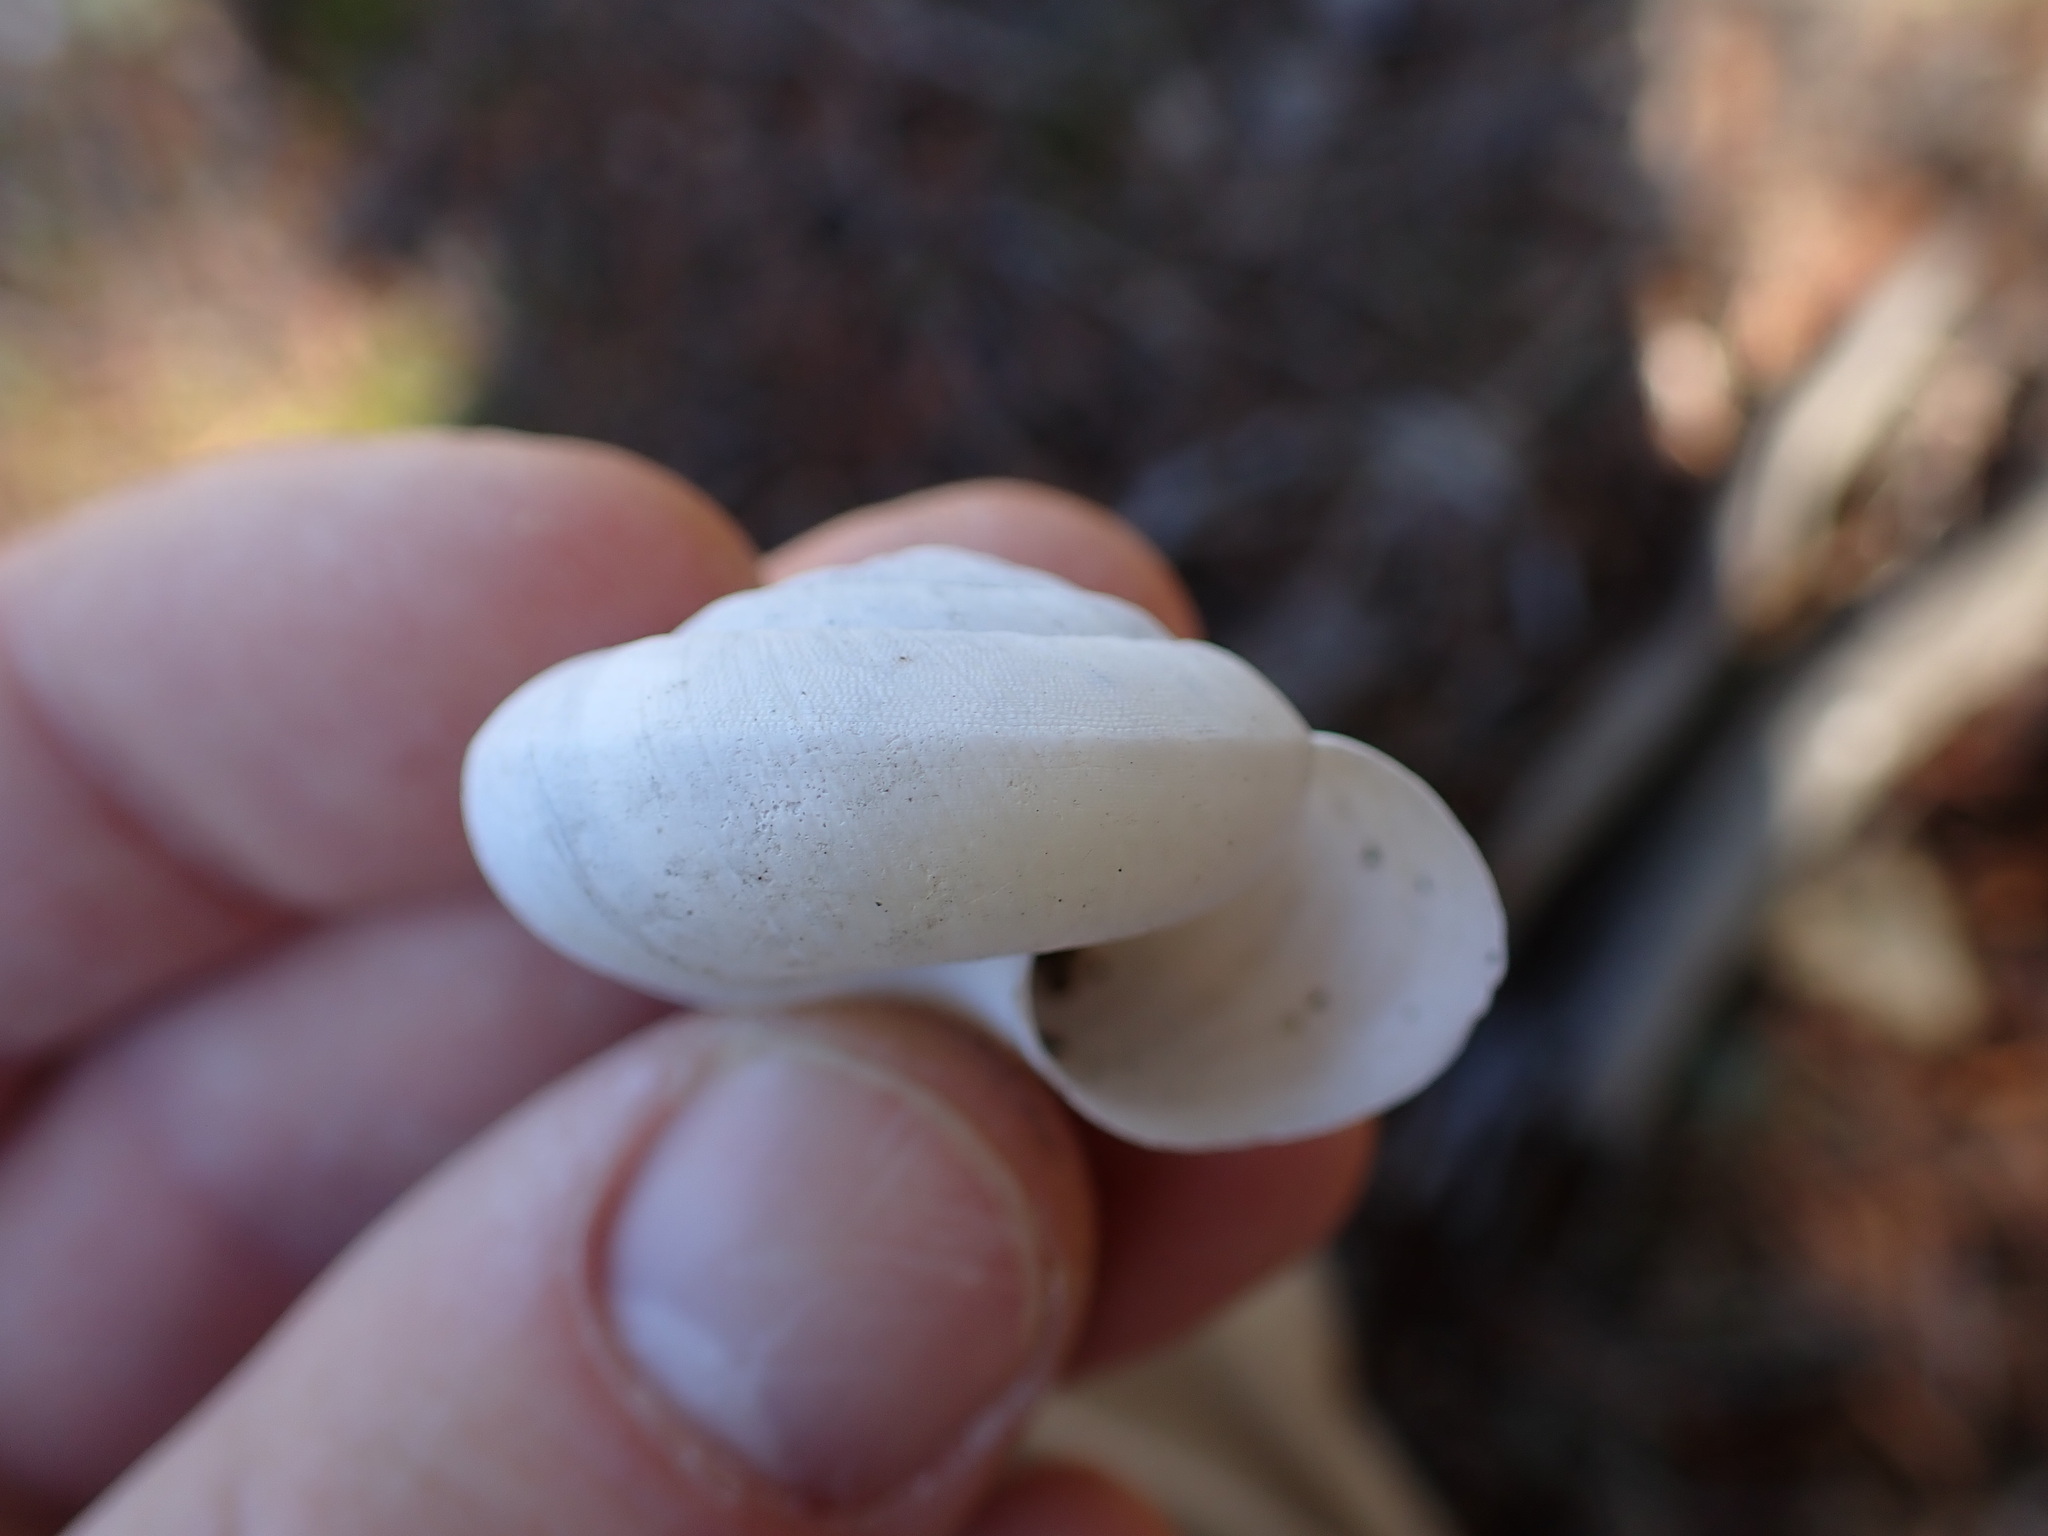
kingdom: Animalia
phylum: Mollusca
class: Gastropoda
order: Stylommatophora
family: Zonitidae
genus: Zonites
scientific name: Zonites algirus
